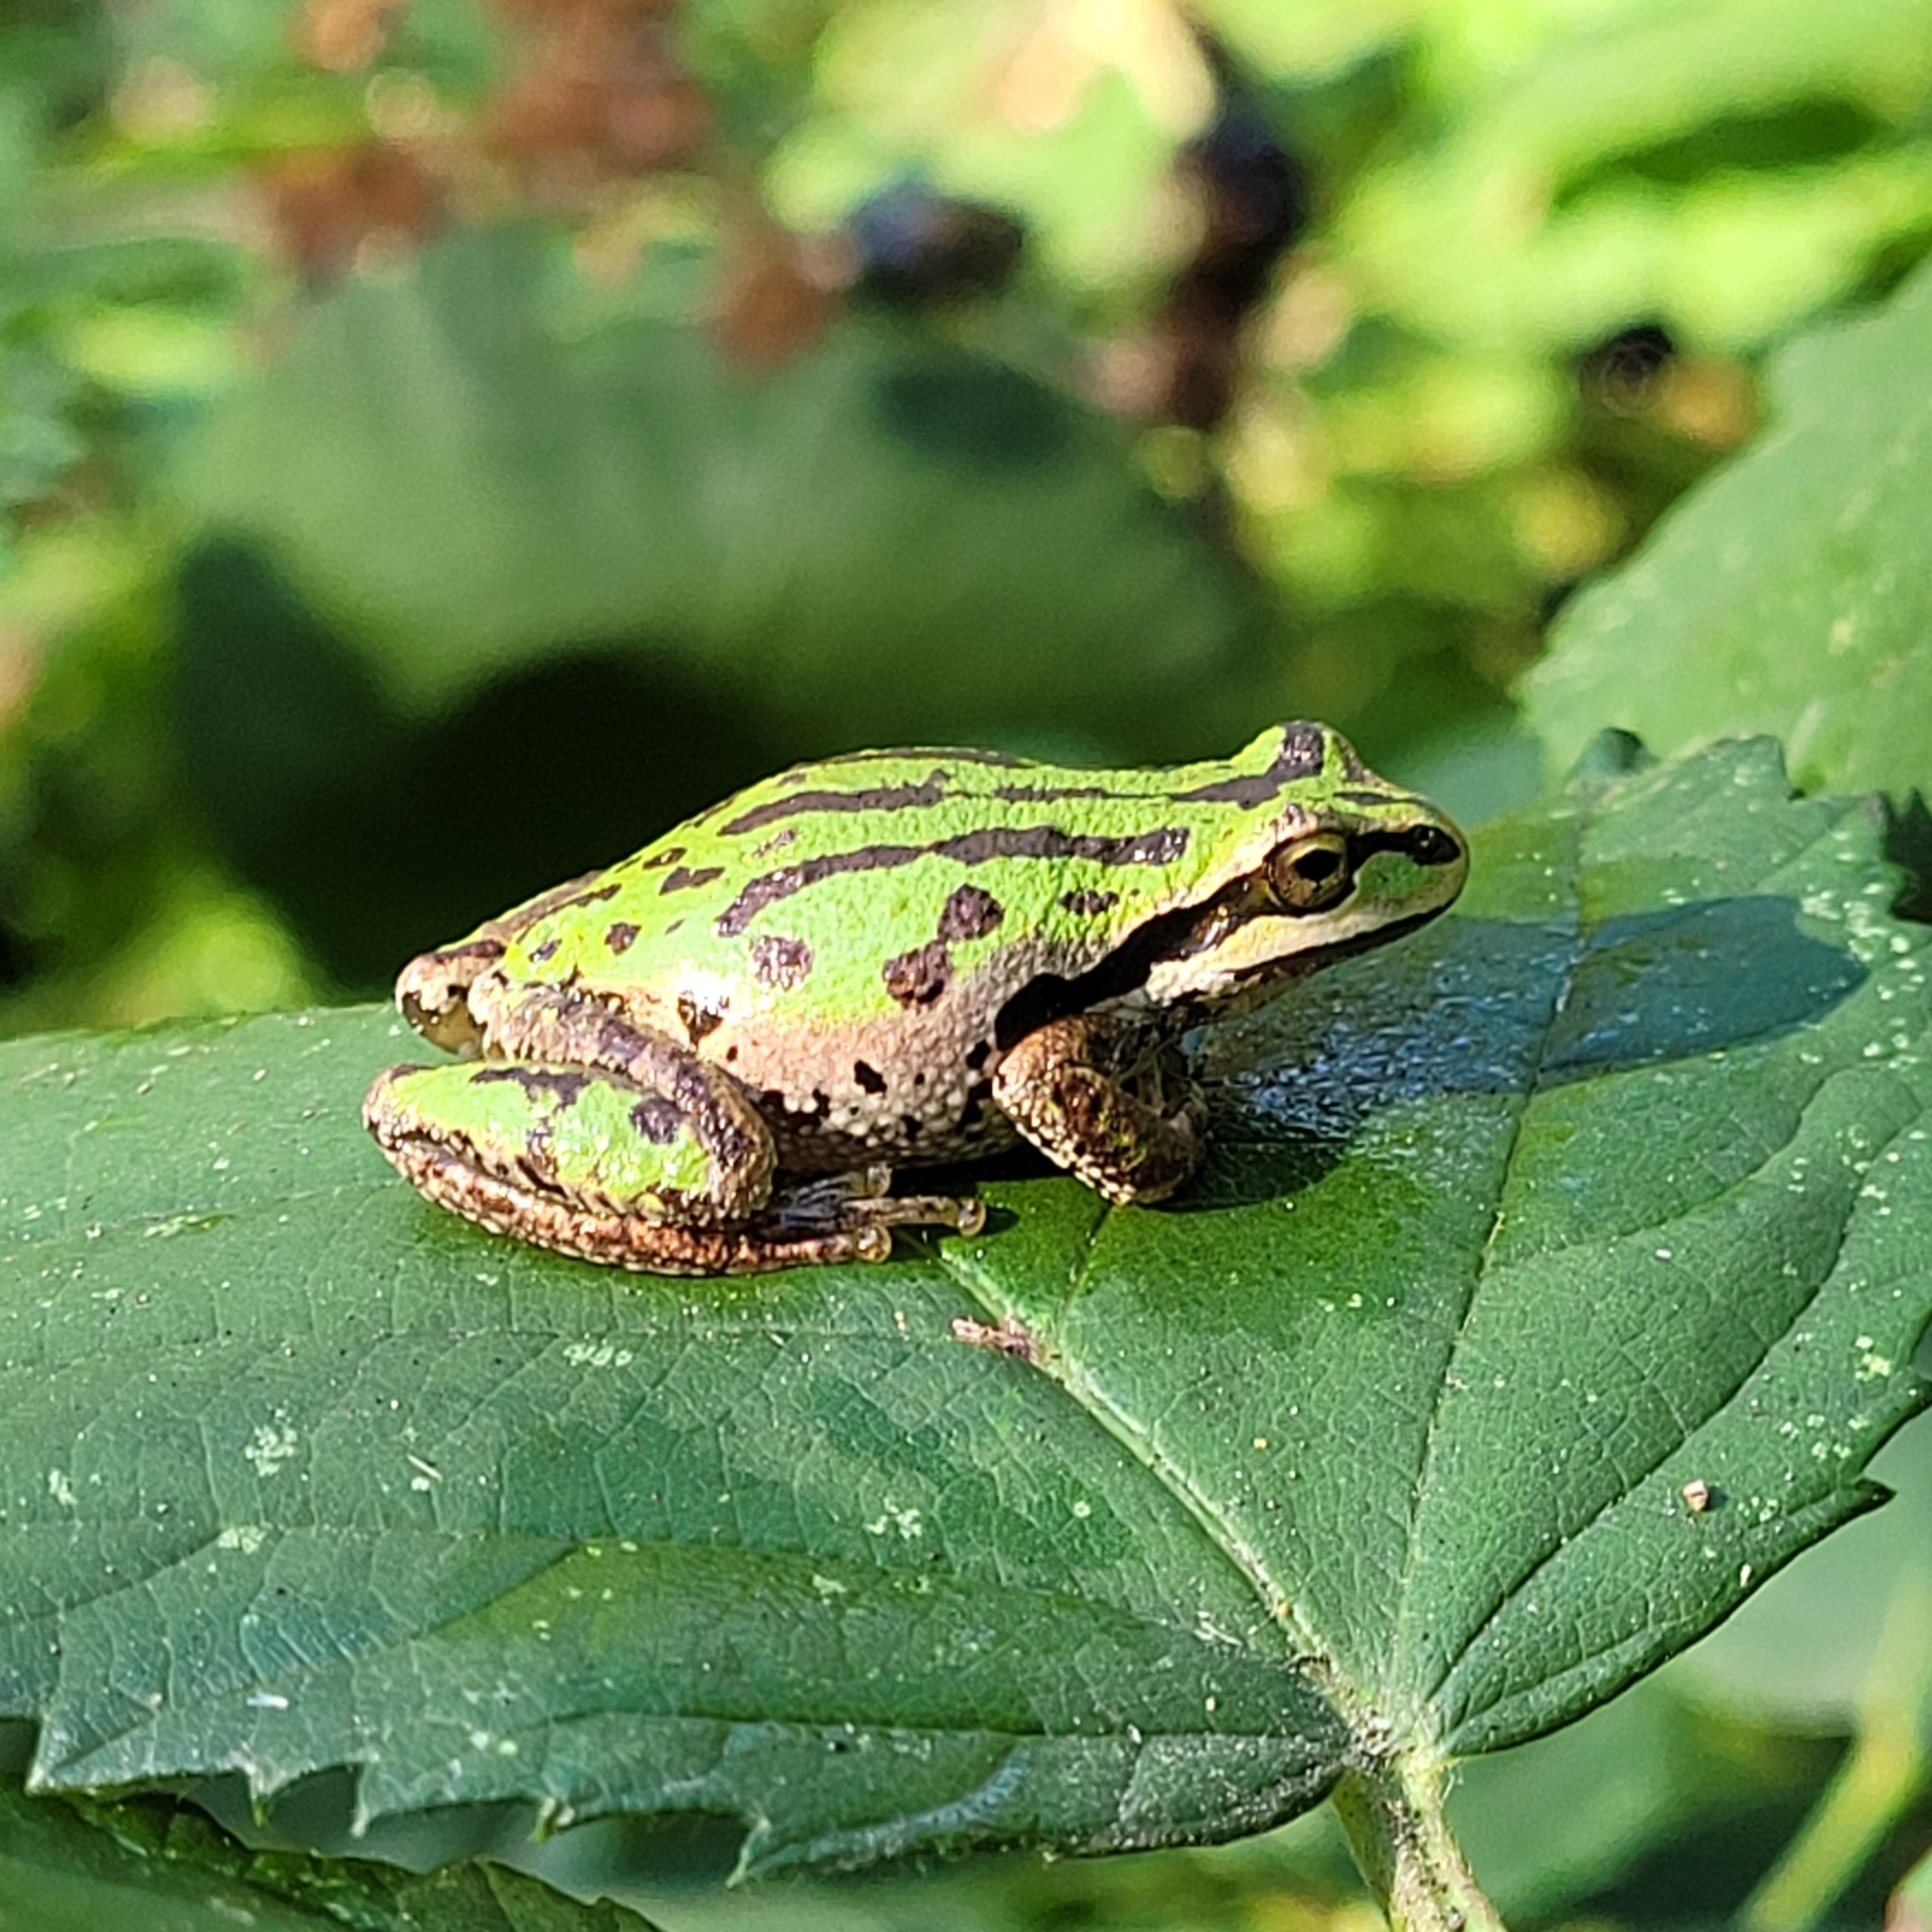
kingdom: Animalia
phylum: Chordata
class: Amphibia
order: Anura
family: Hylidae
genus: Pseudacris
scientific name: Pseudacris regilla
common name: Pacific chorus frog
